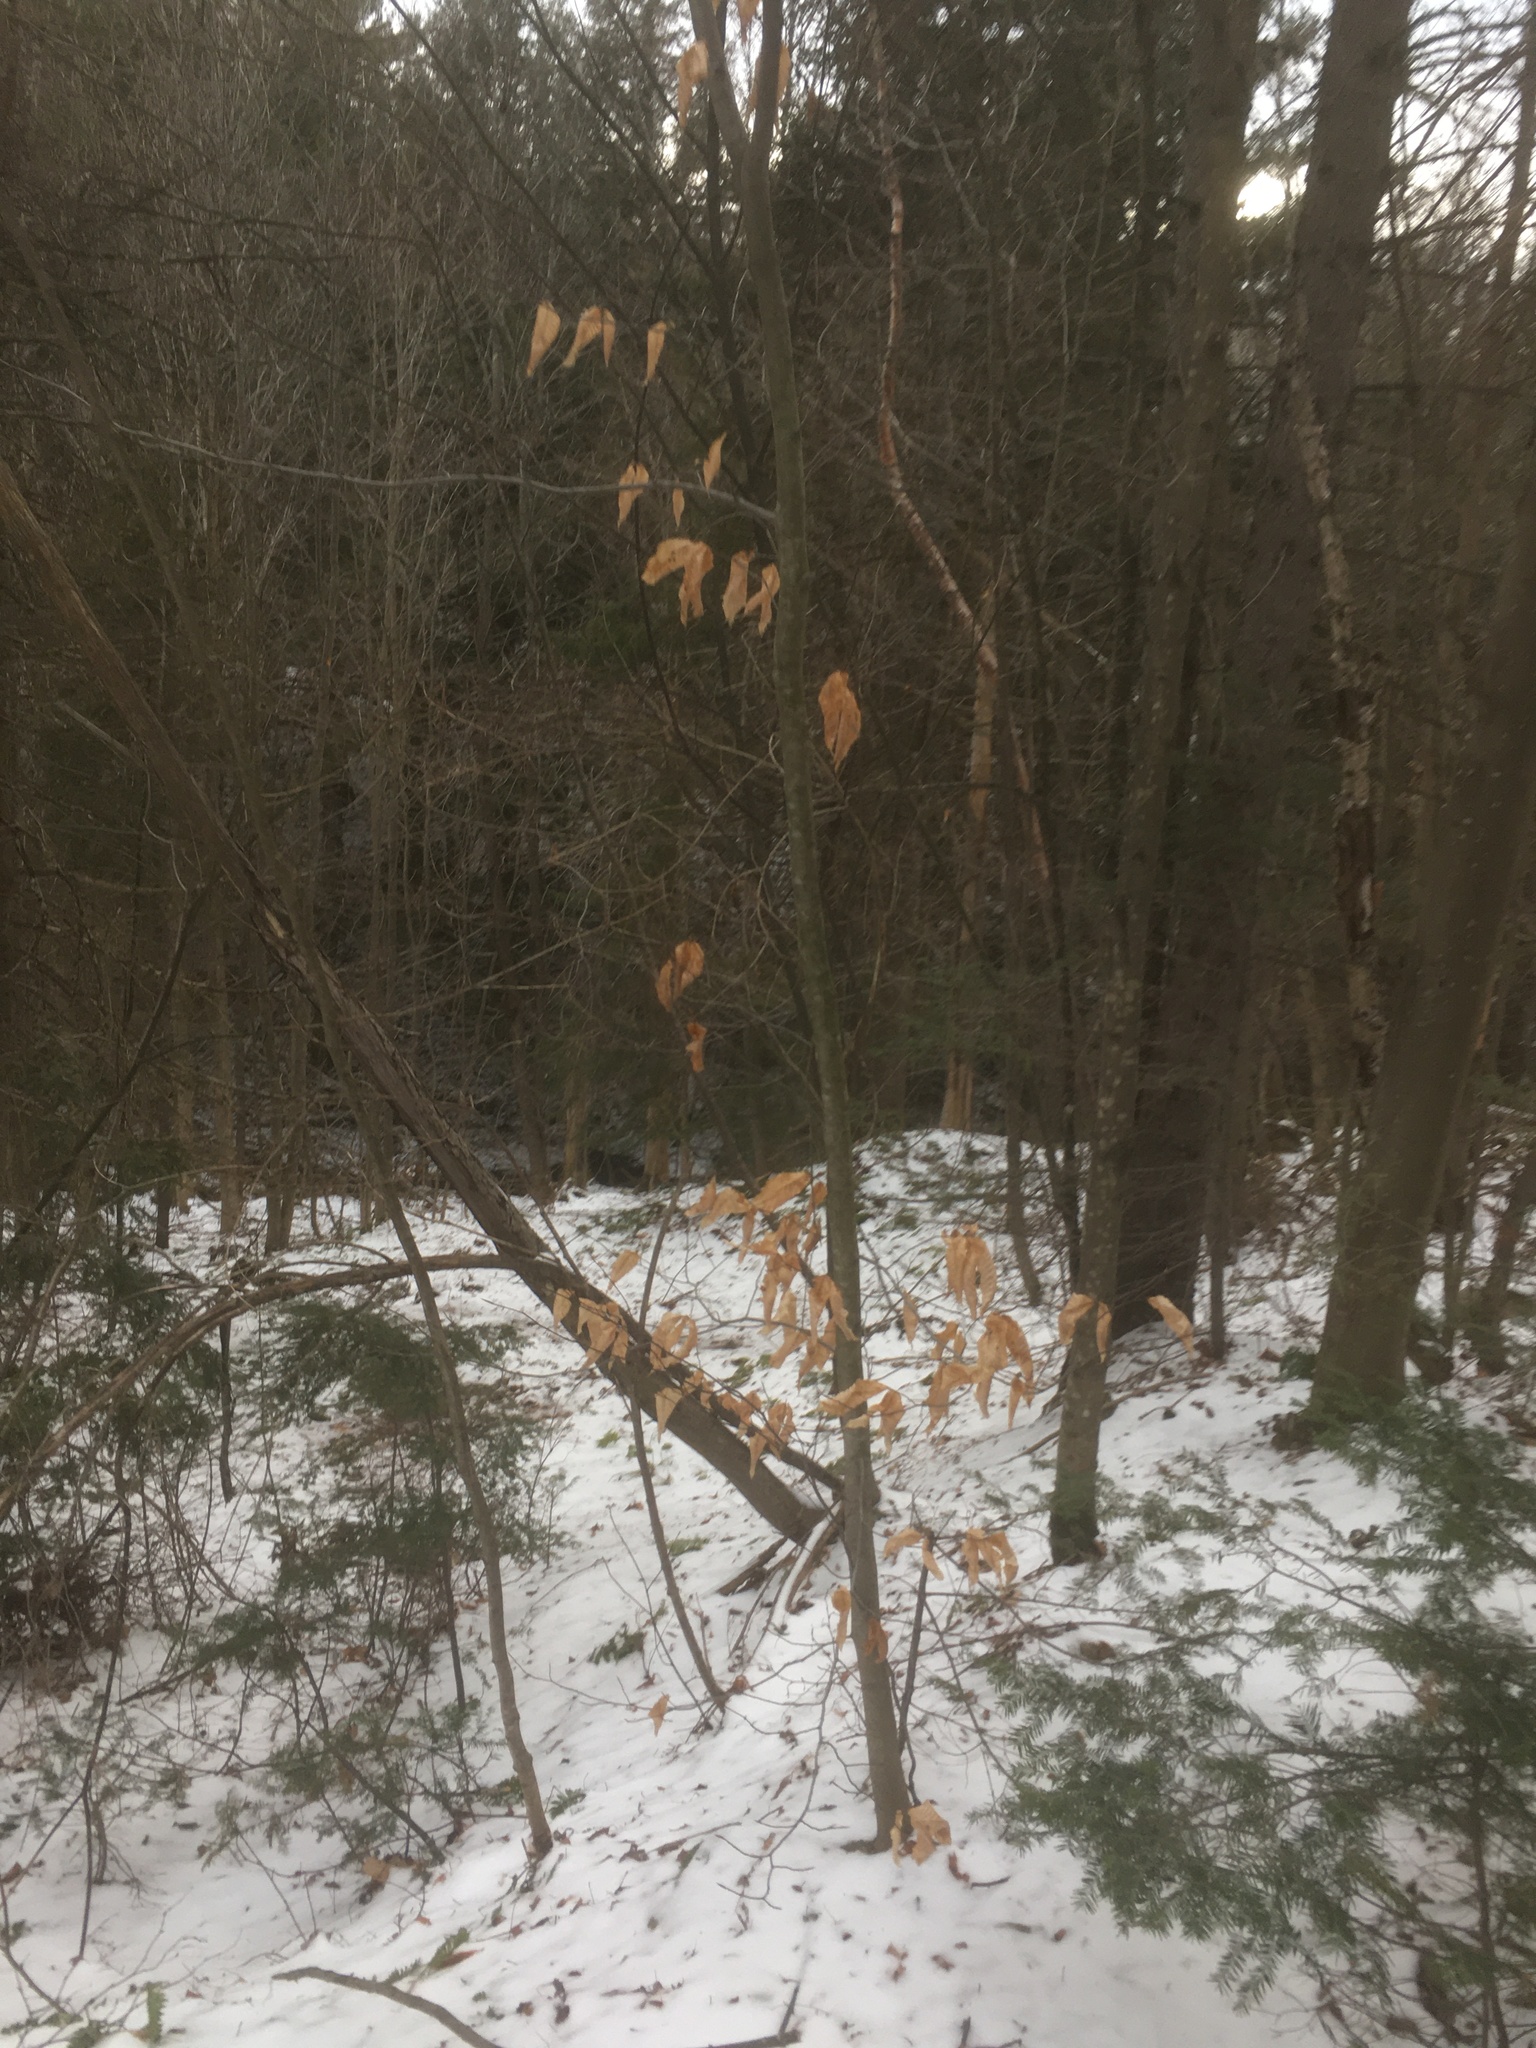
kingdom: Plantae
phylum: Tracheophyta
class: Magnoliopsida
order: Fagales
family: Fagaceae
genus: Fagus
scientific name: Fagus grandifolia
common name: American beech
